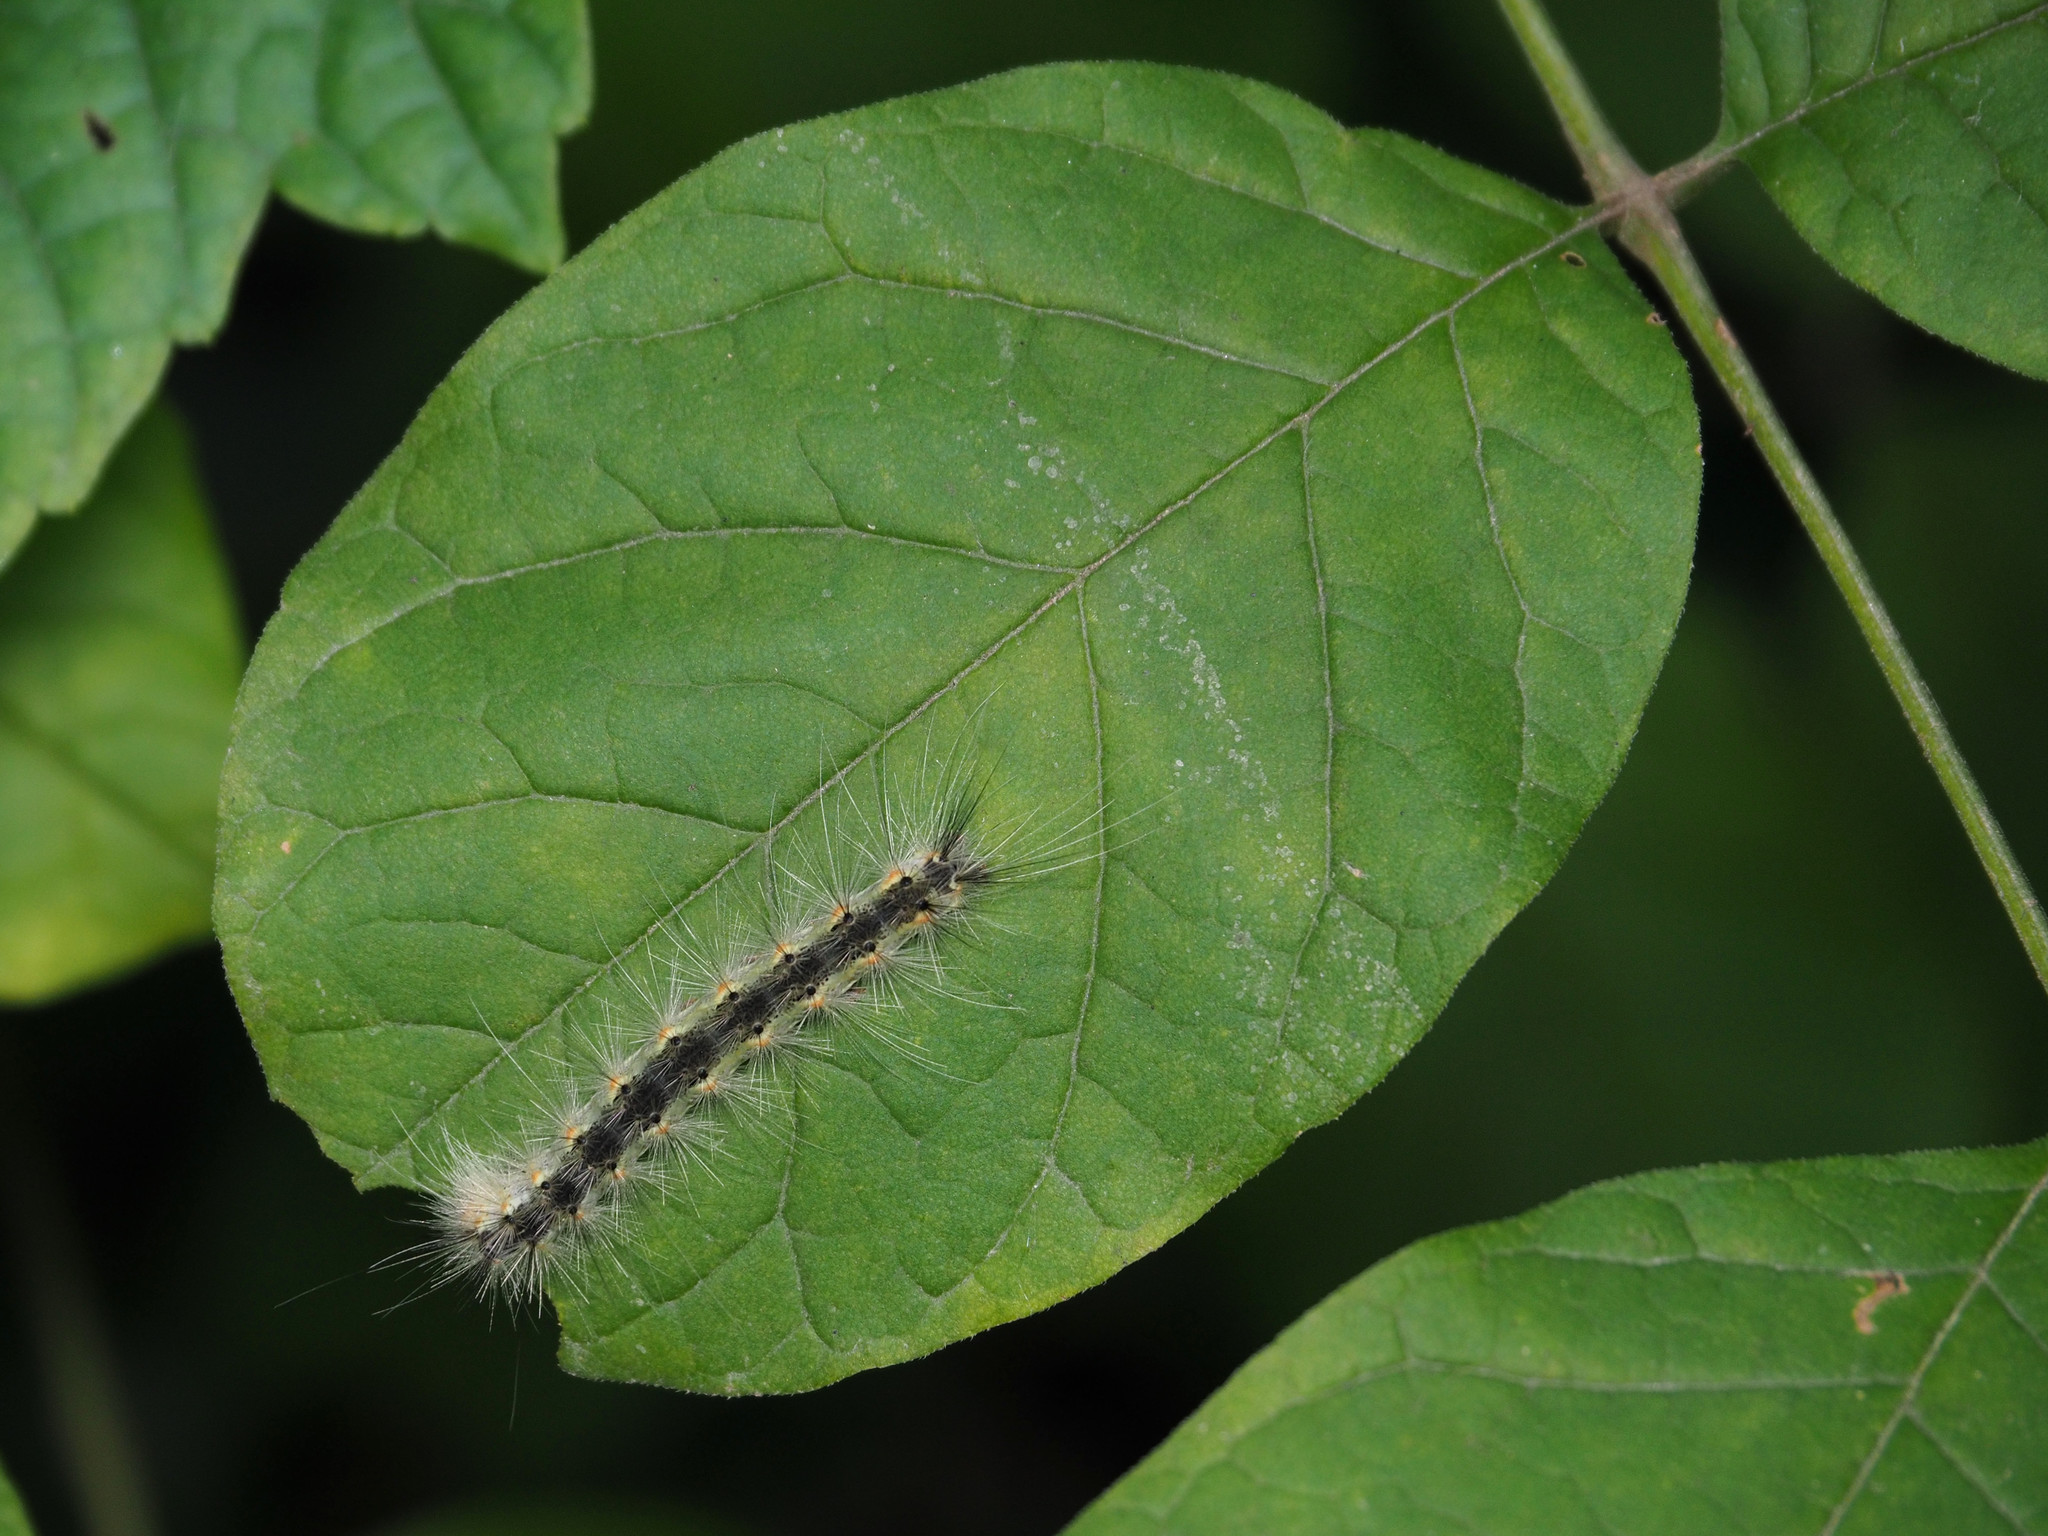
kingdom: Animalia
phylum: Arthropoda
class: Insecta
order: Lepidoptera
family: Erebidae
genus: Hyphantria
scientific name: Hyphantria cunea
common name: American white moth
